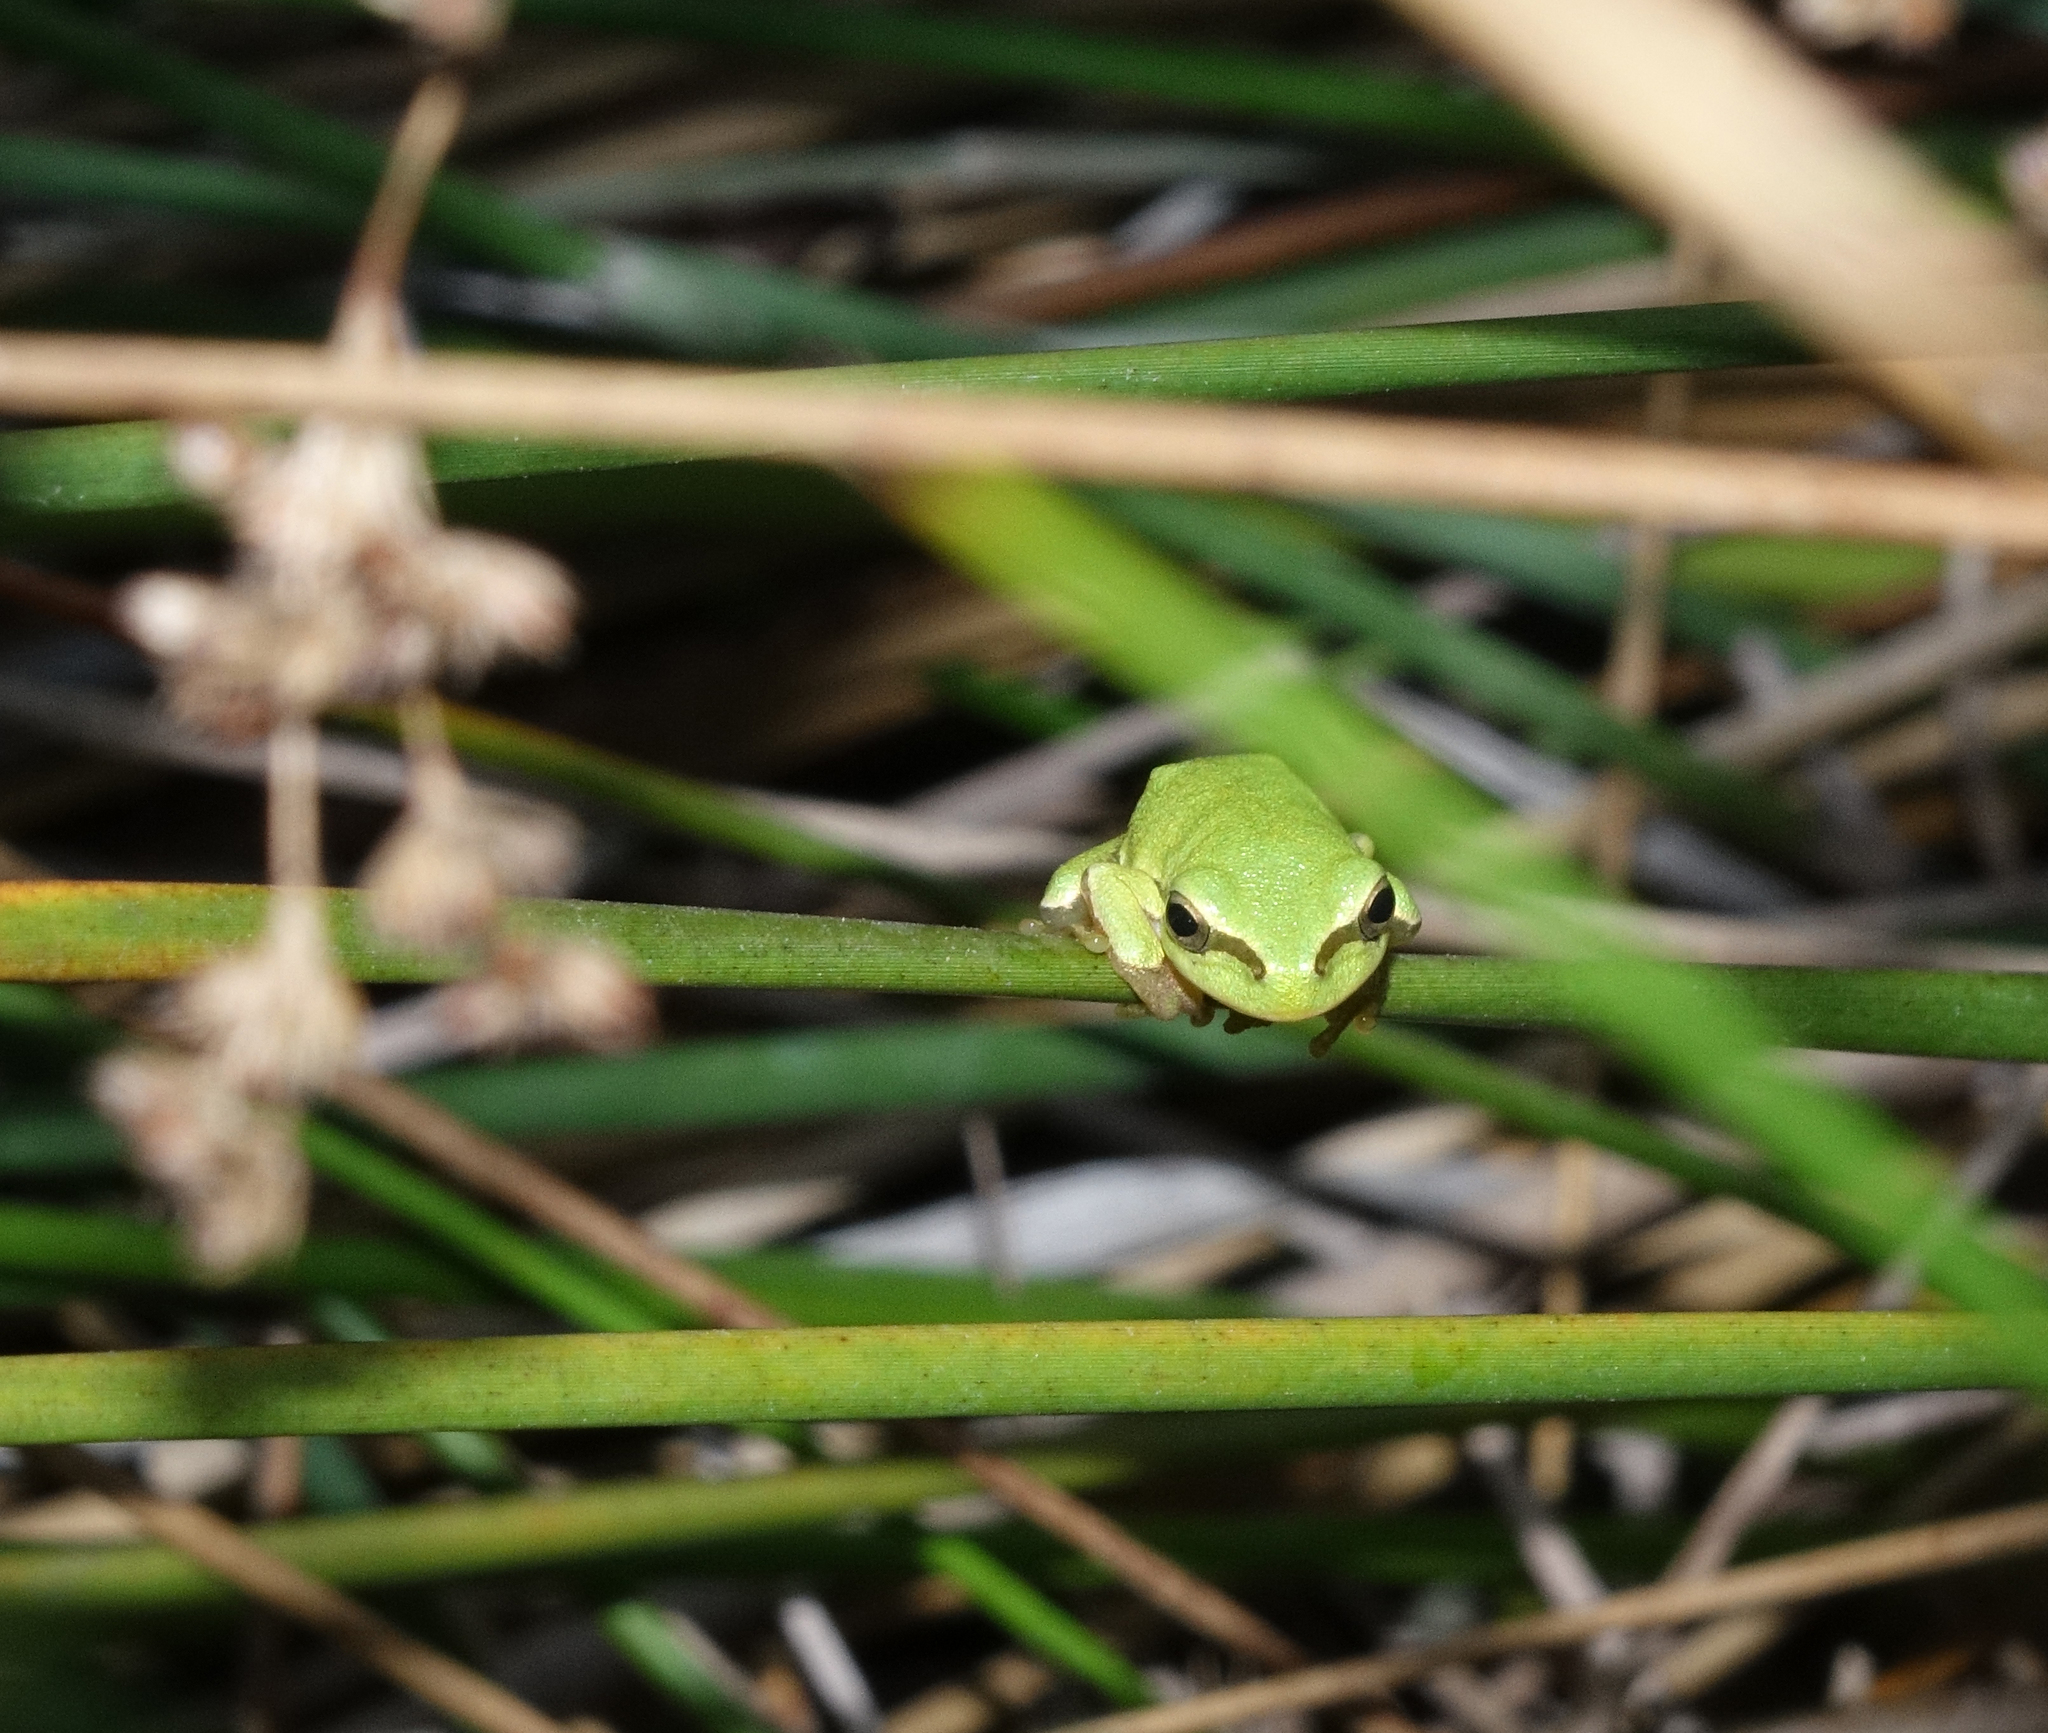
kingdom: Animalia
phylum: Chordata
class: Amphibia
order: Anura
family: Hylidae
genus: Hyla
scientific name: Hyla orientalis
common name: Caucasian treefrog
